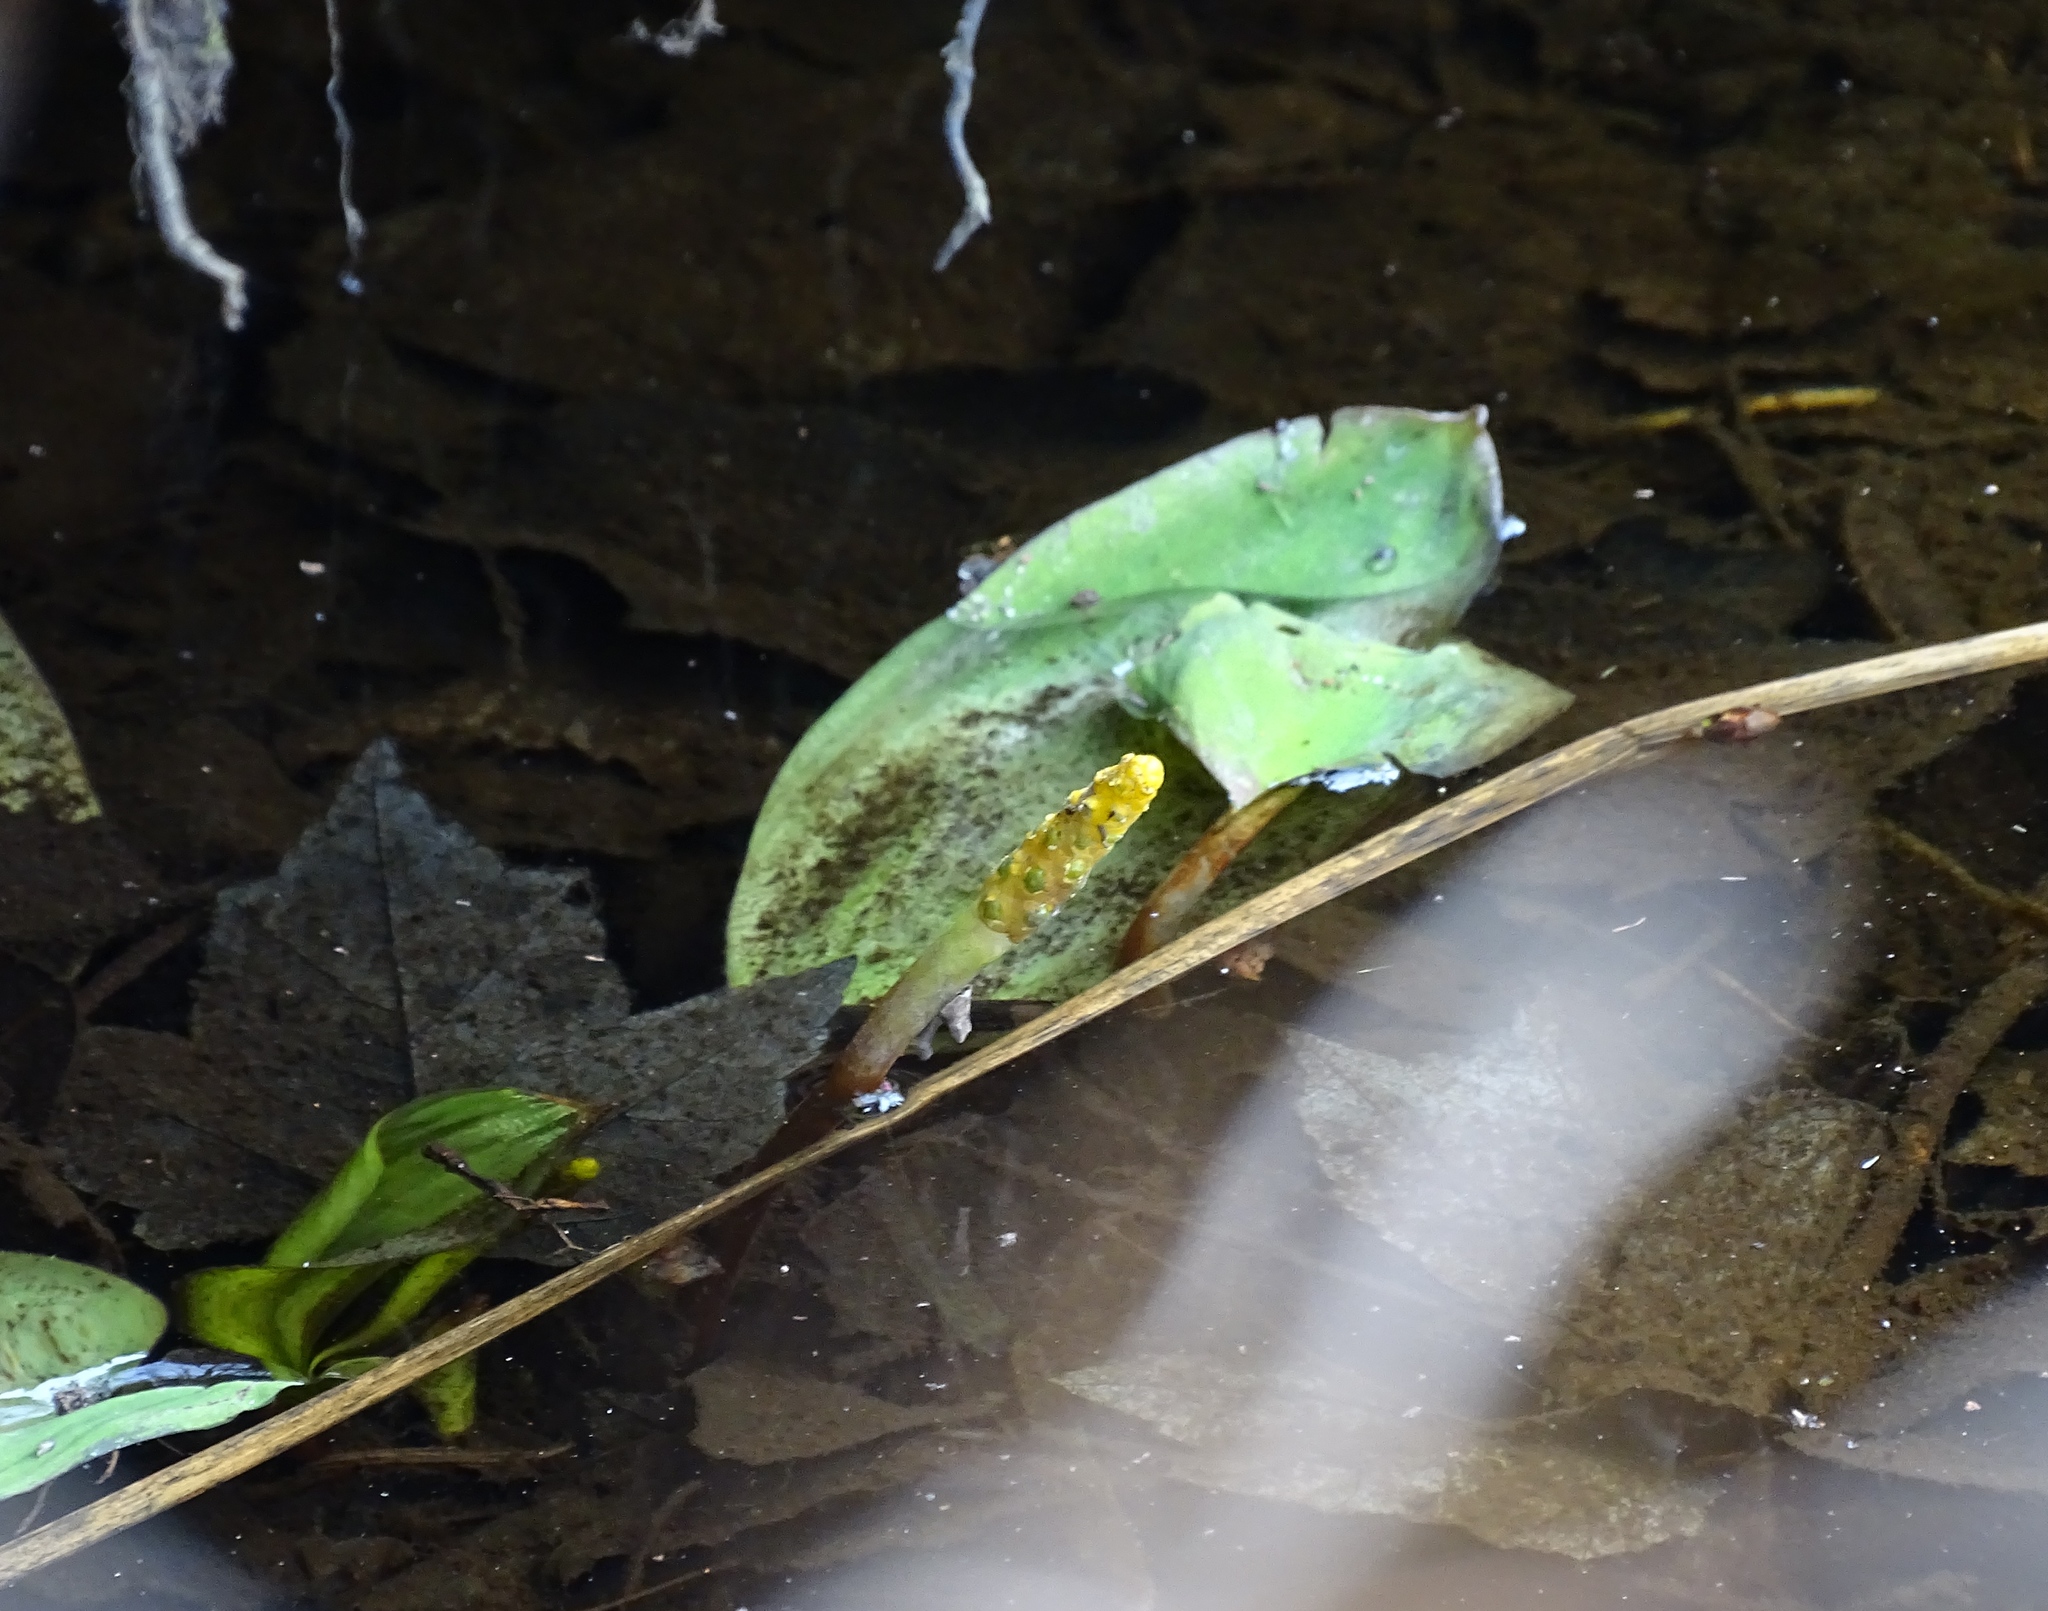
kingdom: Plantae
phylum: Tracheophyta
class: Liliopsida
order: Alismatales
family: Araceae
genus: Orontium
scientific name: Orontium aquaticum
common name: Golden-club
